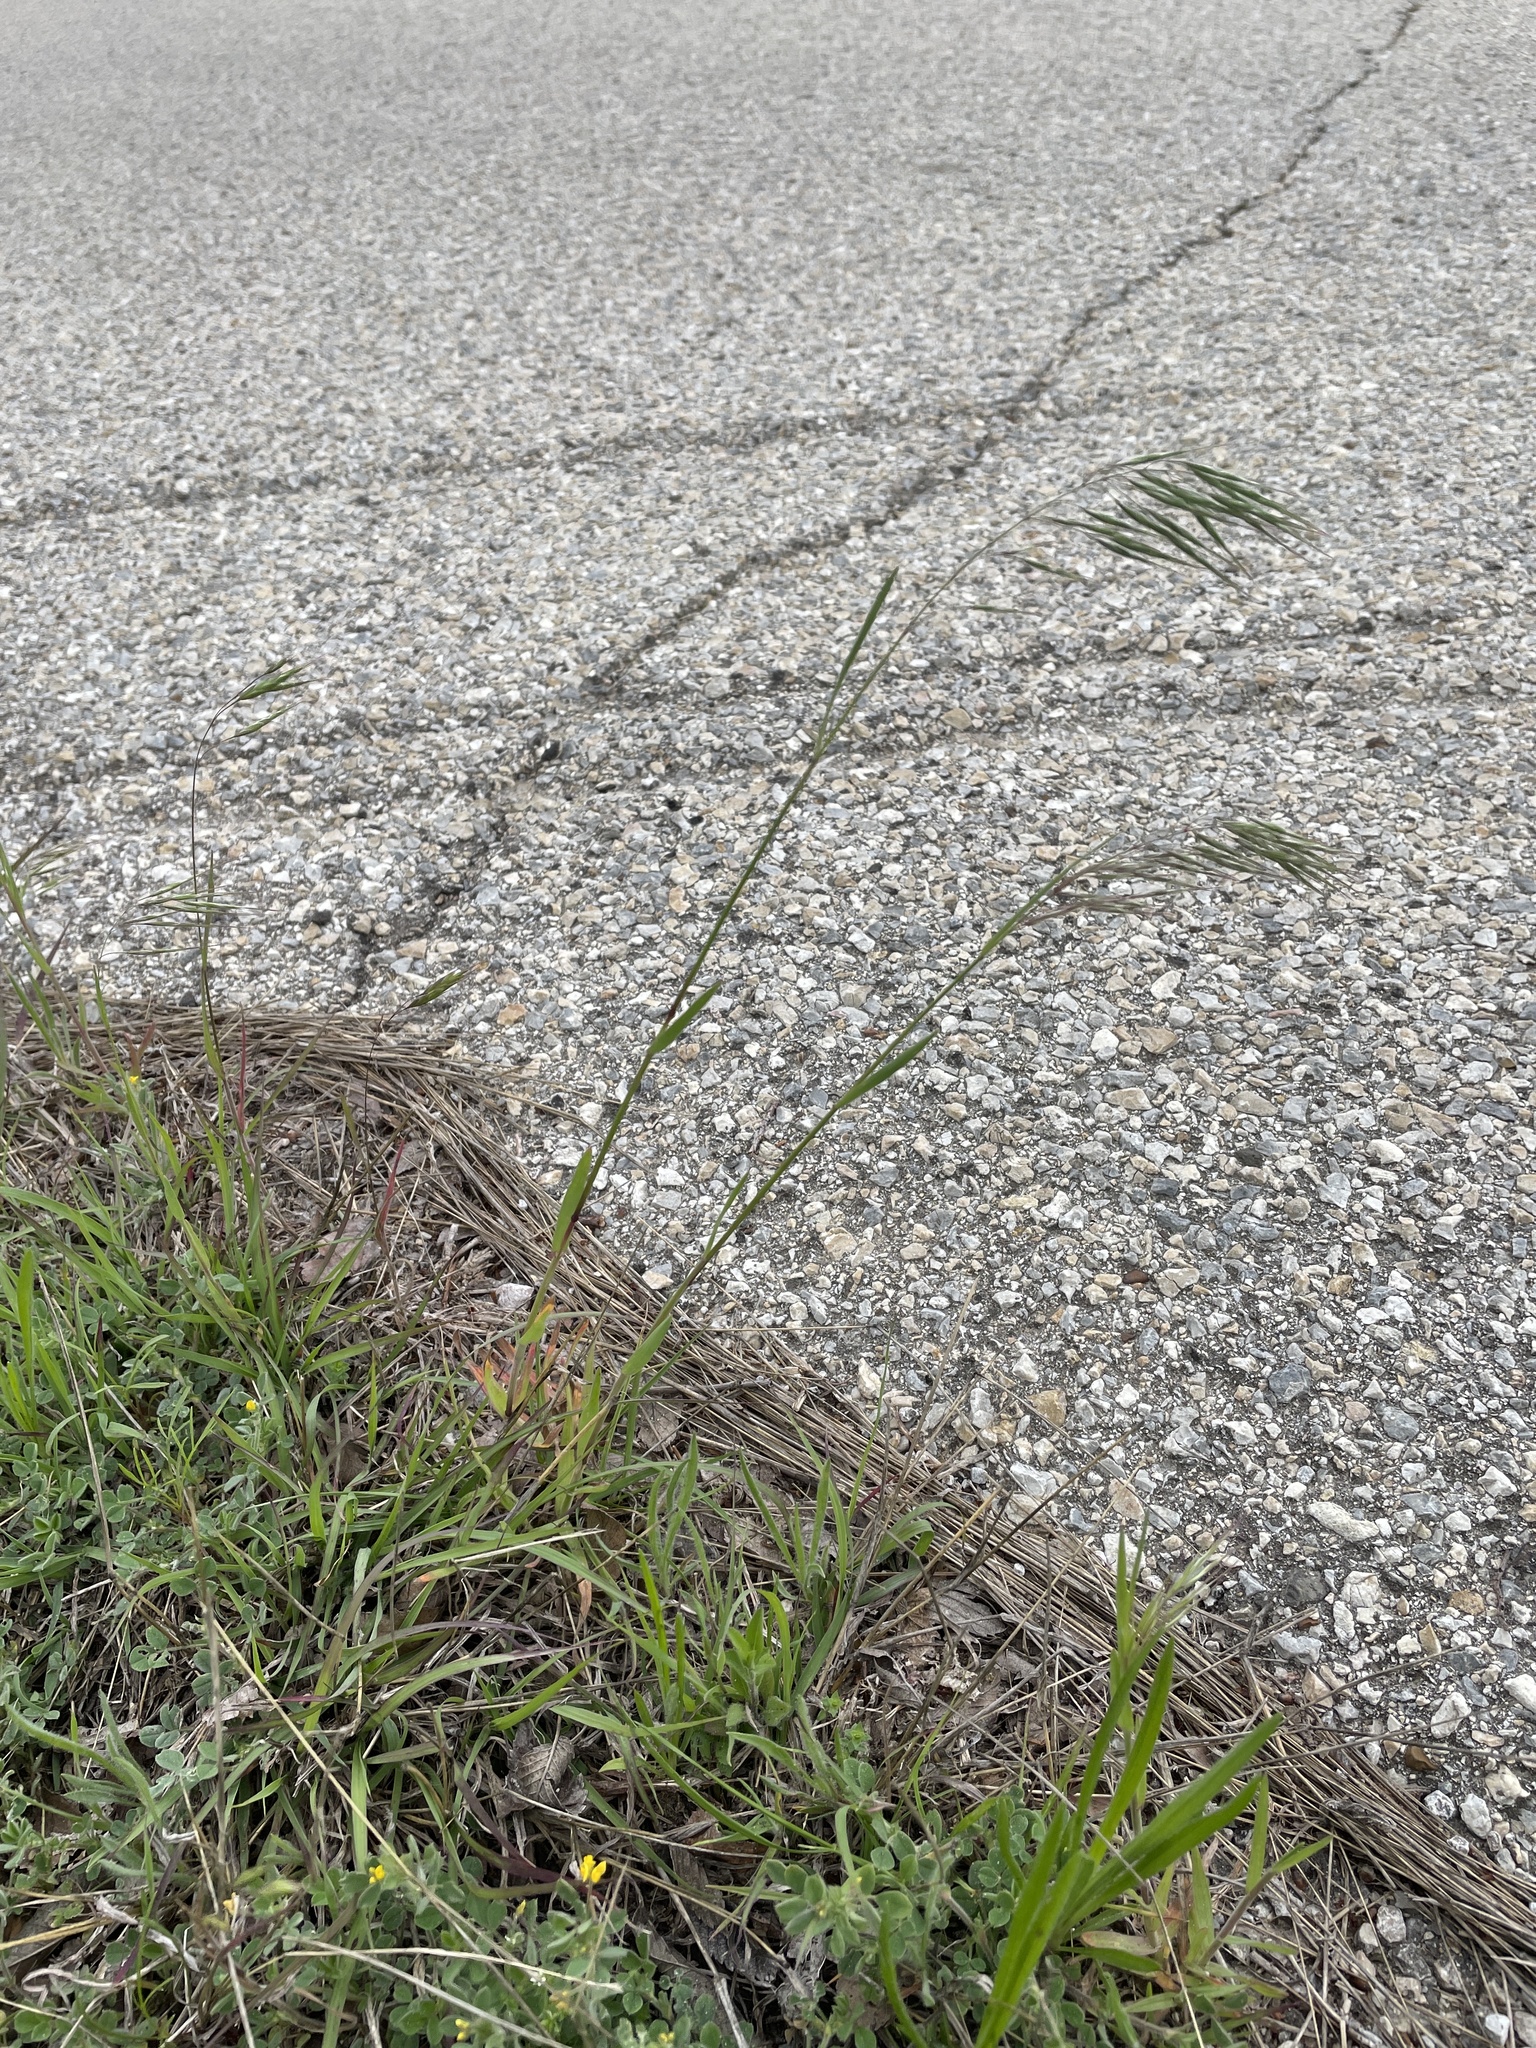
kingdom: Plantae
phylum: Tracheophyta
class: Liliopsida
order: Poales
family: Poaceae
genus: Bromus
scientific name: Bromus tectorum
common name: Cheatgrass
